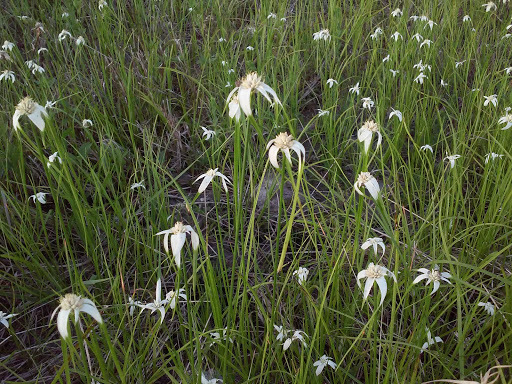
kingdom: Plantae
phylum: Tracheophyta
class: Liliopsida
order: Poales
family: Cyperaceae
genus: Rhynchospora
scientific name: Rhynchospora colorata
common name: Star sedge
